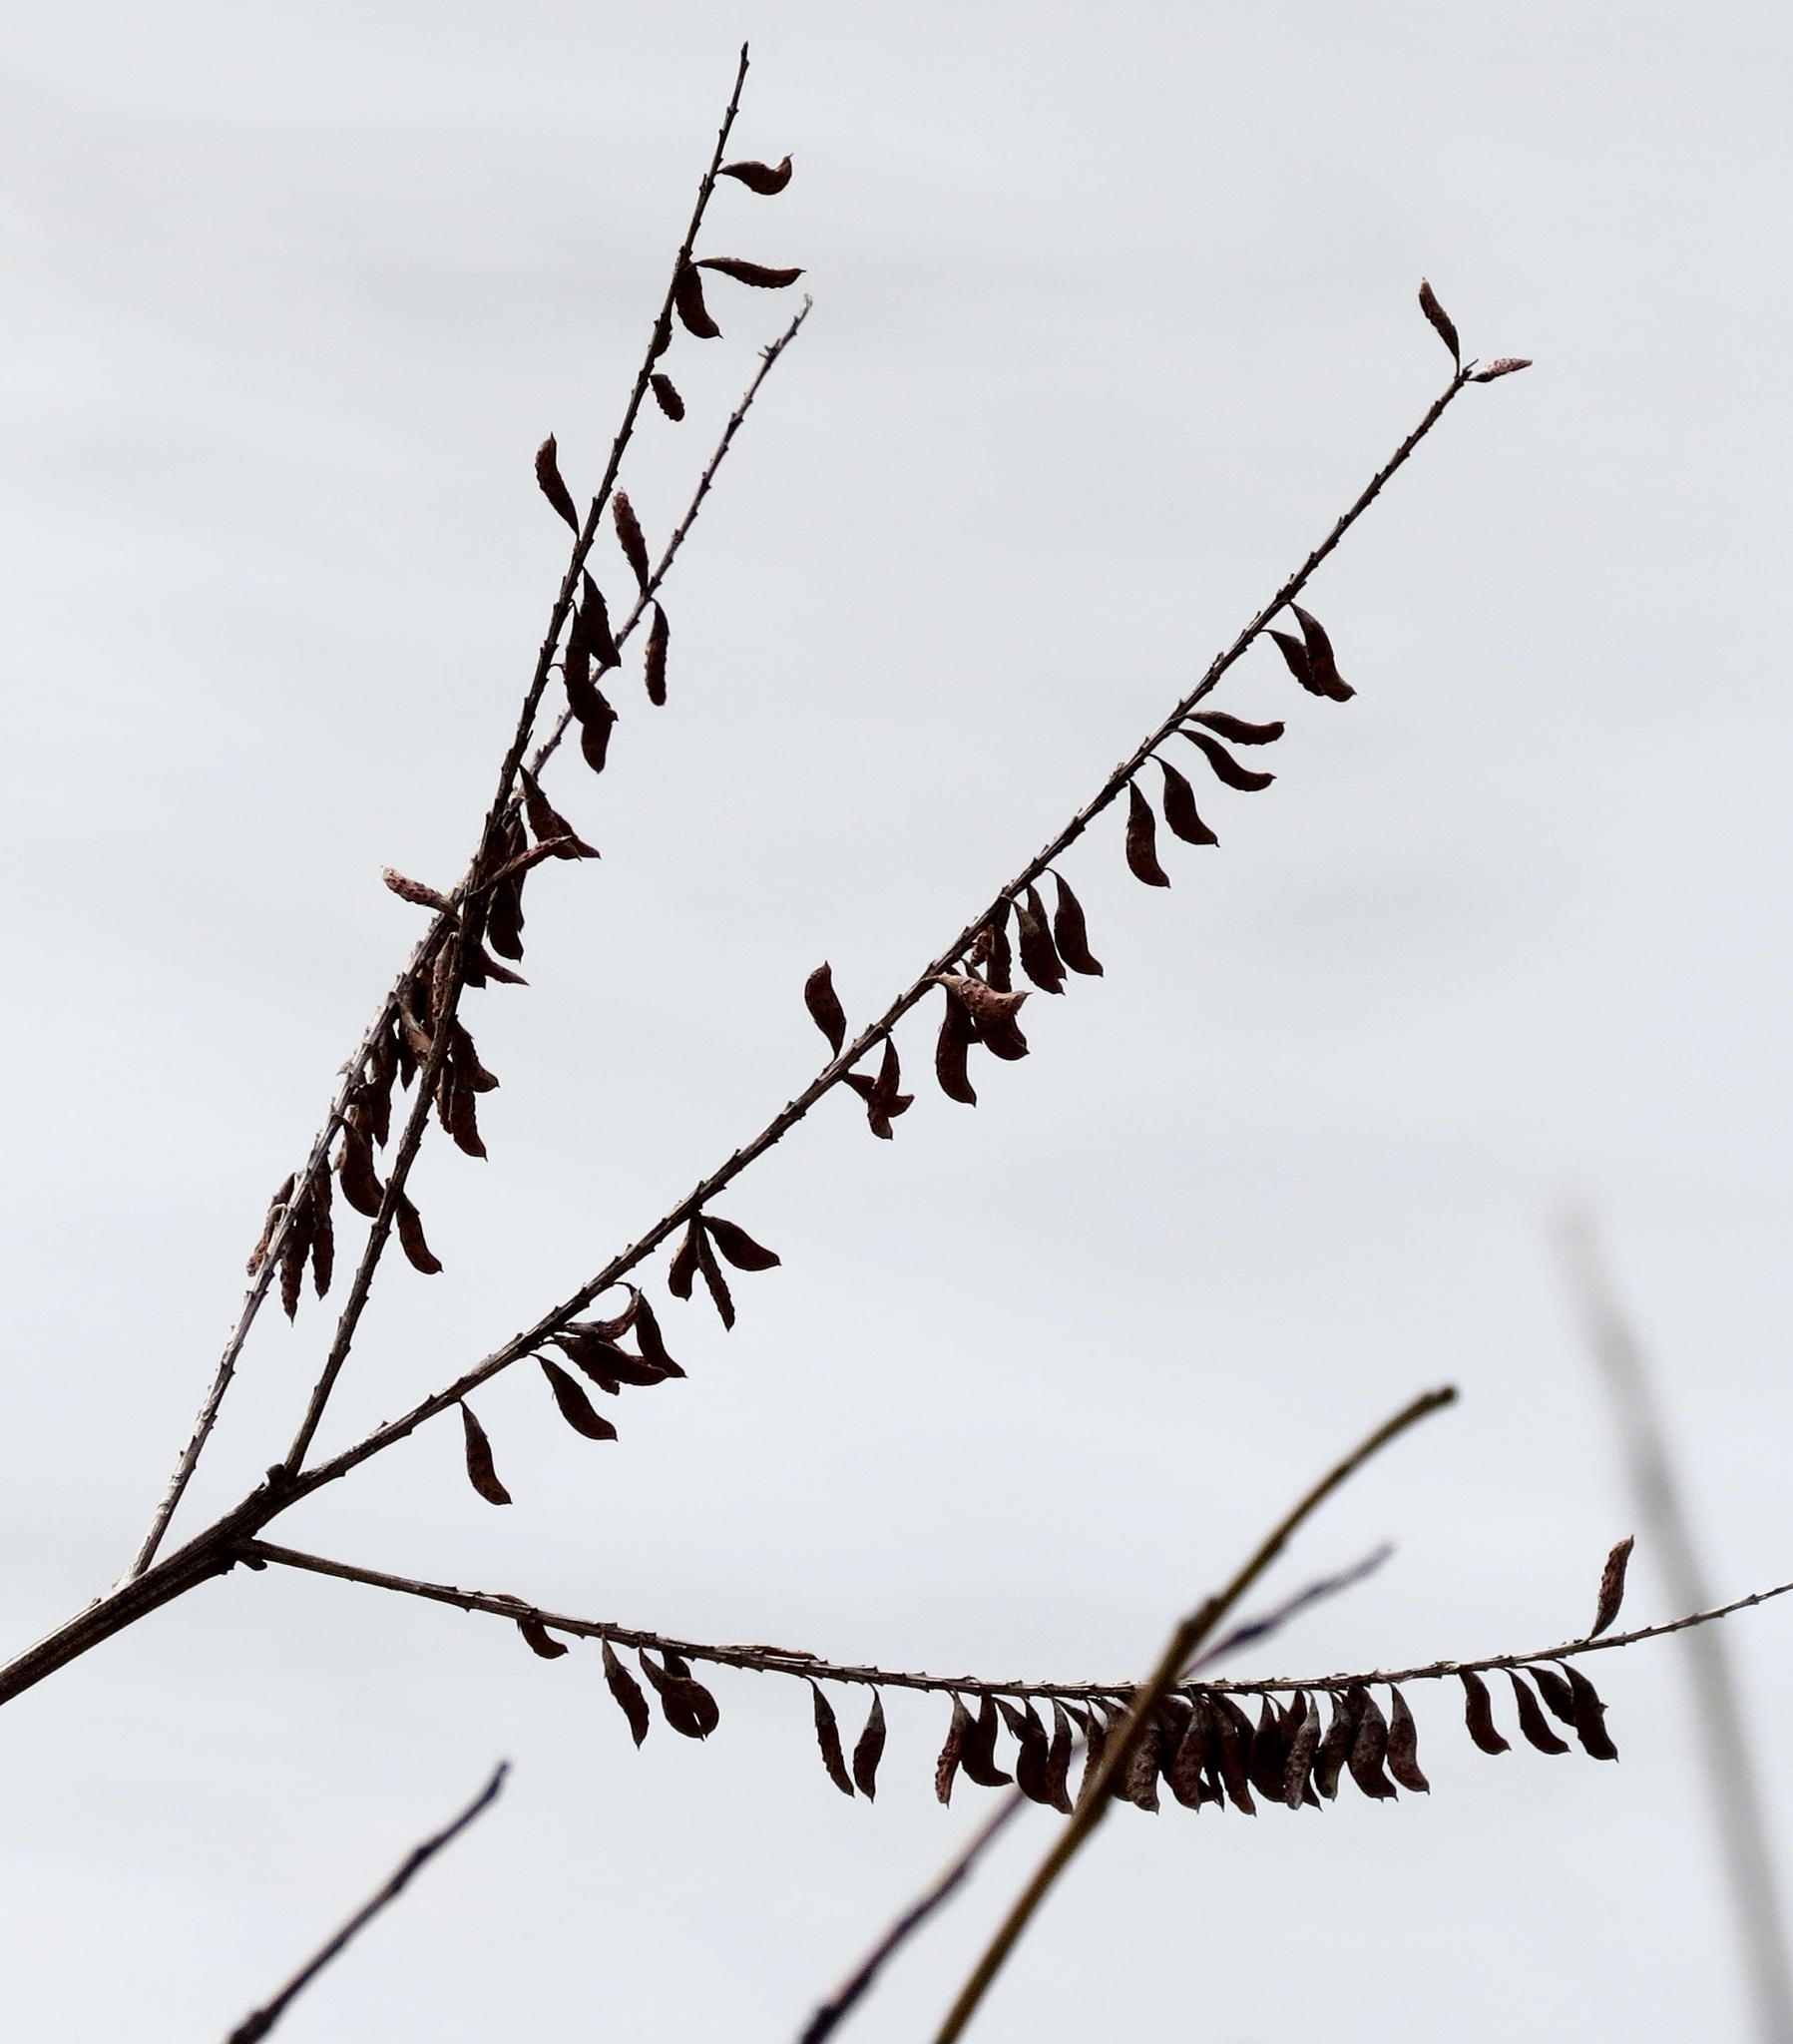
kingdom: Plantae
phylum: Tracheophyta
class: Magnoliopsida
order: Fabales
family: Fabaceae
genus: Amorpha
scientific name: Amorpha fruticosa
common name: False indigo
